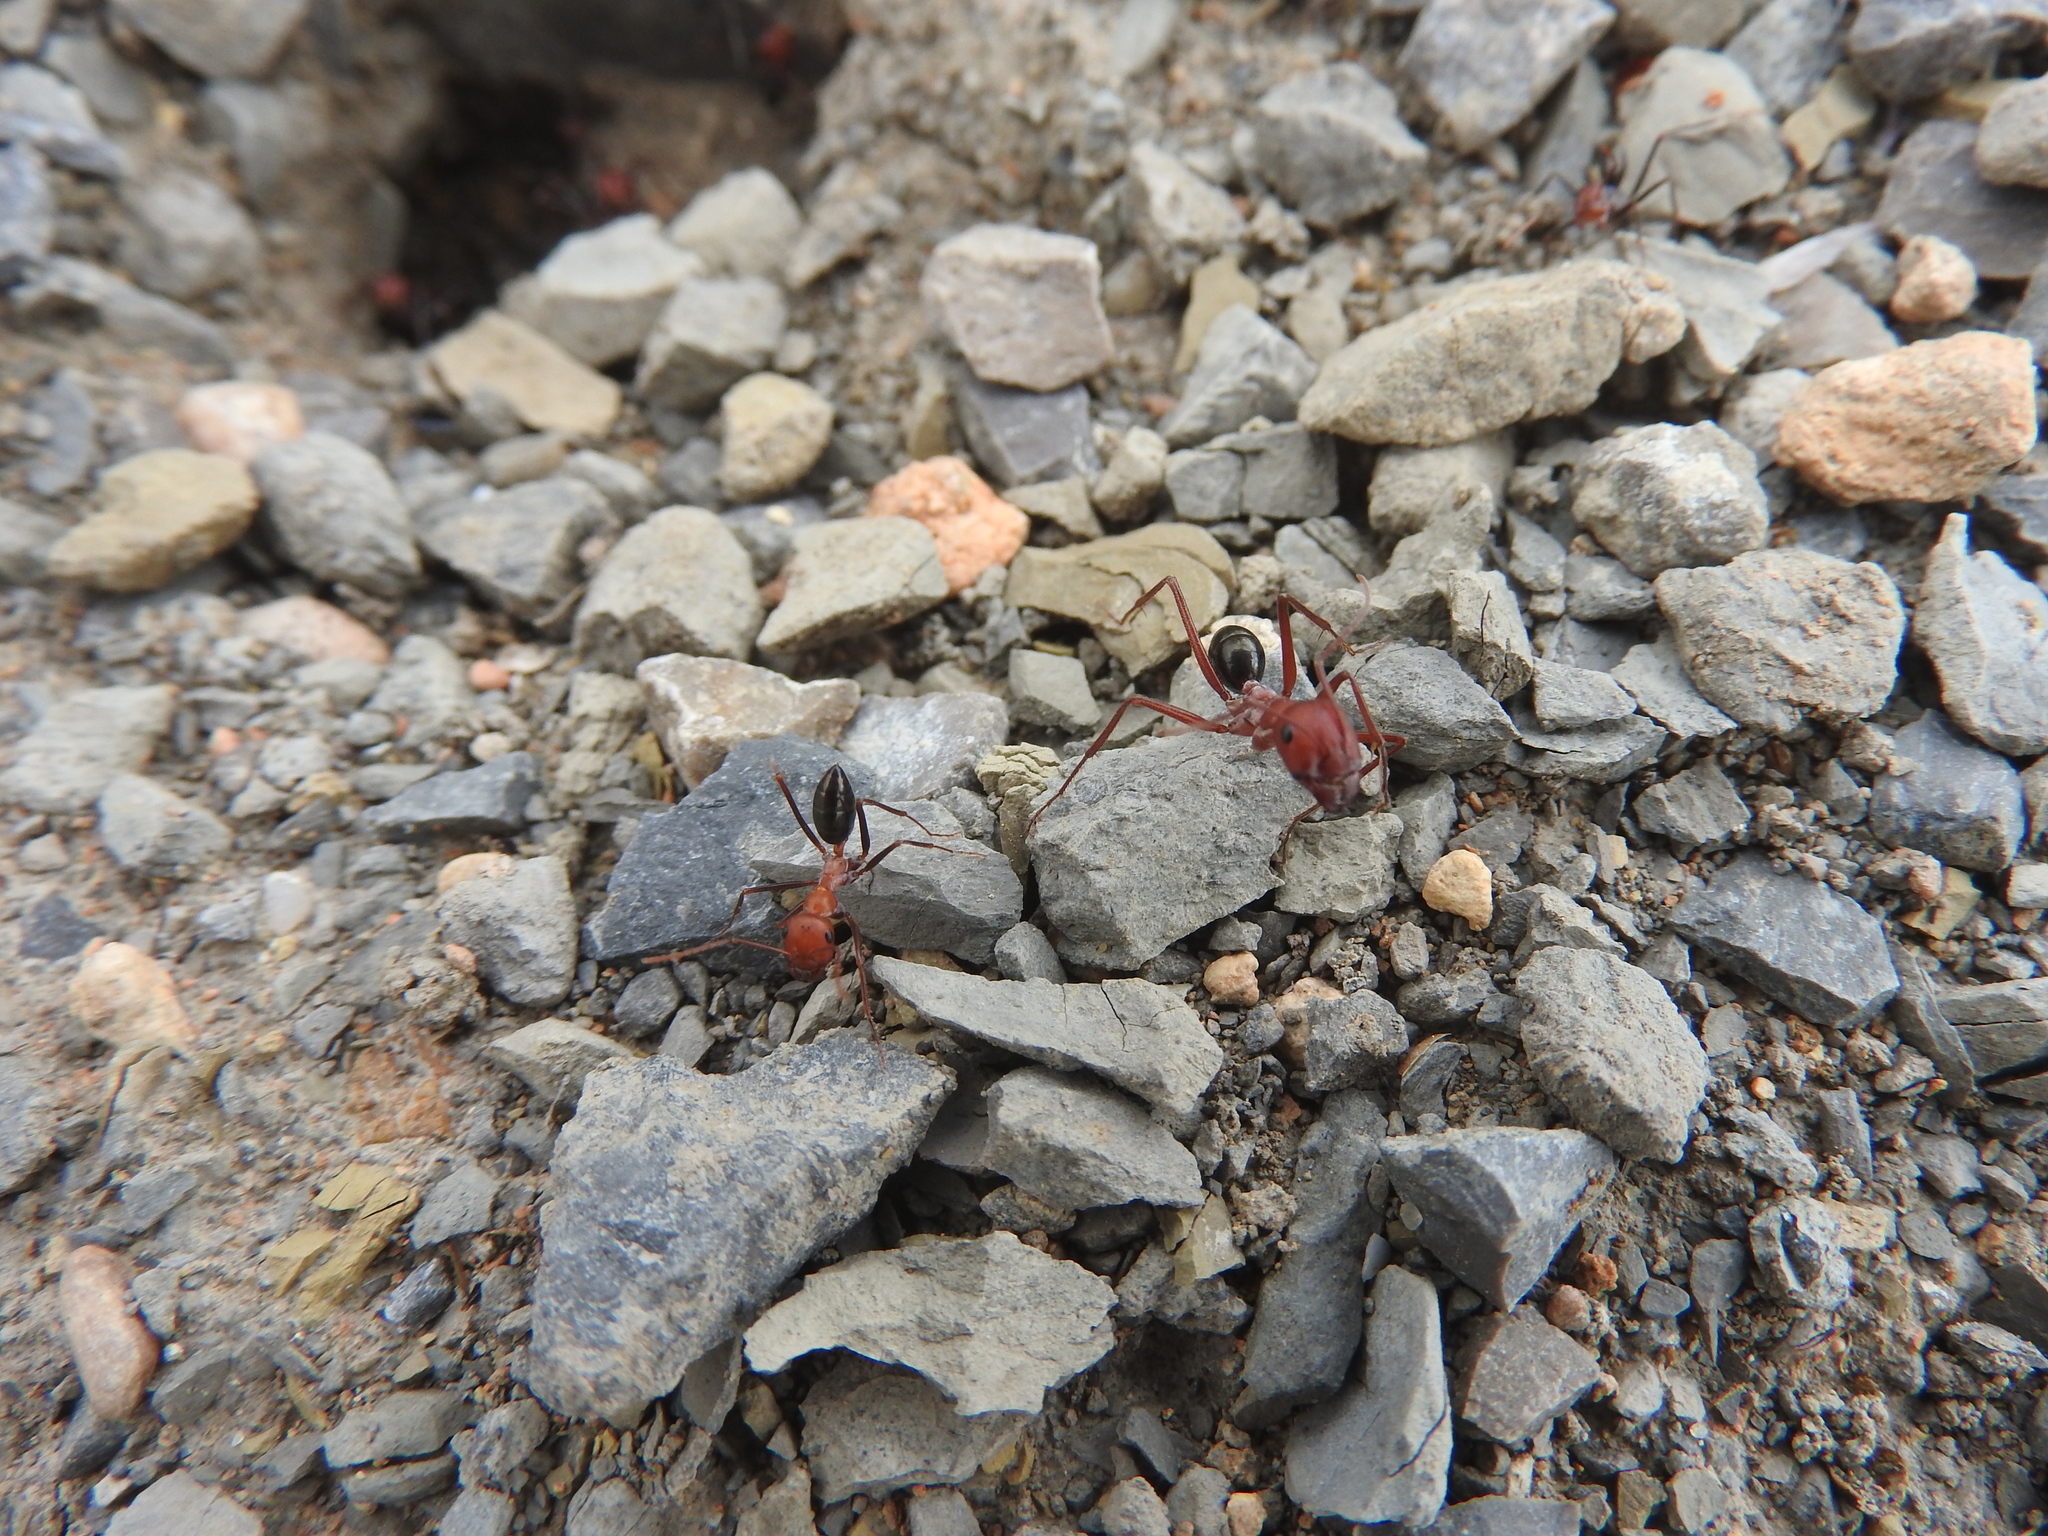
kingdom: Animalia
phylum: Arthropoda
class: Insecta
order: Hymenoptera
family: Formicidae
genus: Cataglyphis
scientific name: Cataglyphis nodus
